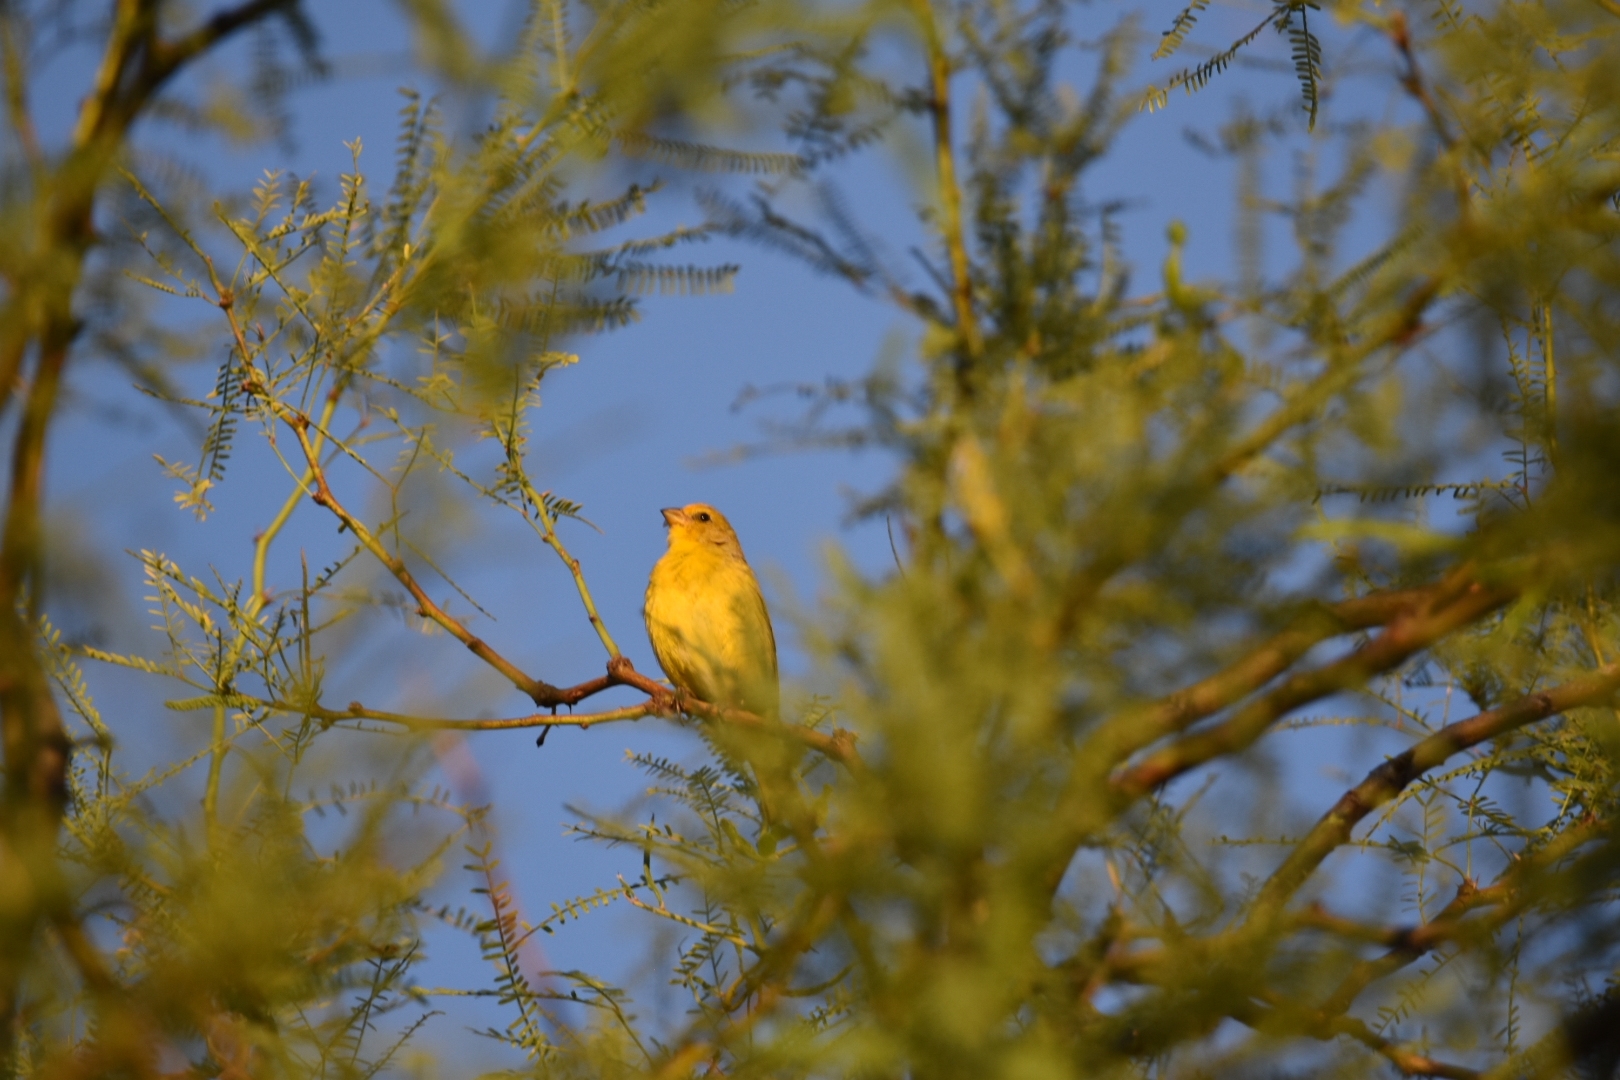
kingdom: Animalia
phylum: Chordata
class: Aves
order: Passeriformes
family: Thraupidae
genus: Sicalis
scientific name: Sicalis flaveola
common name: Saffron finch
